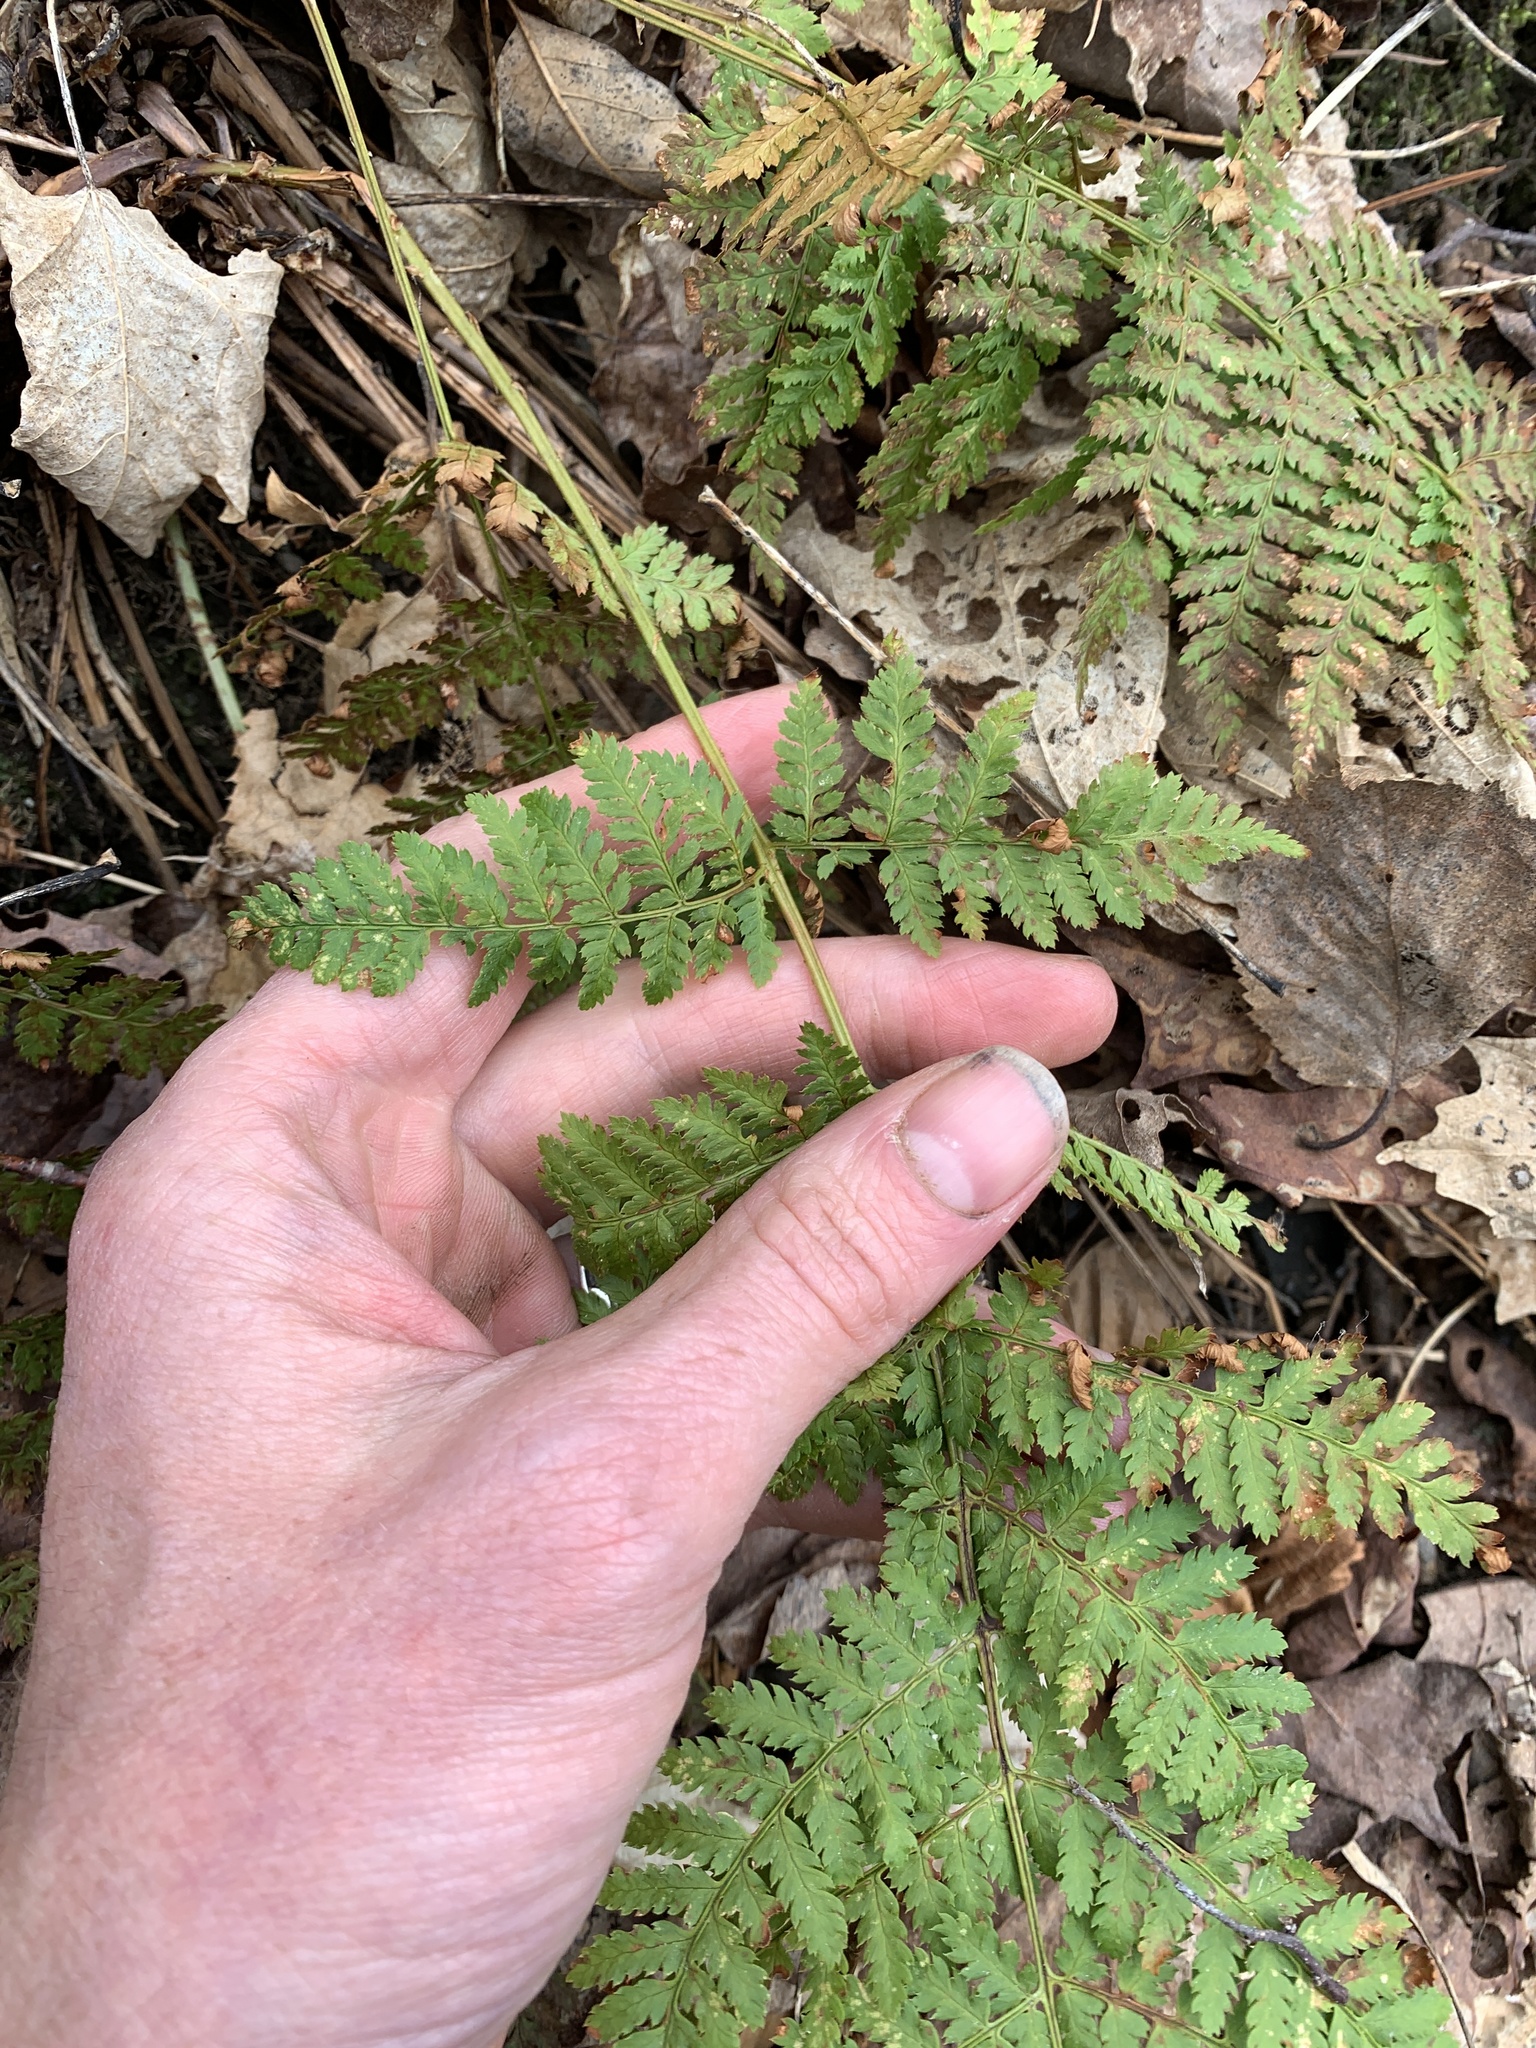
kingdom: Plantae
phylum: Tracheophyta
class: Polypodiopsida
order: Polypodiales
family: Dryopteridaceae
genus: Dryopteris
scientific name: Dryopteris intermedia
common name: Evergreen wood fern
